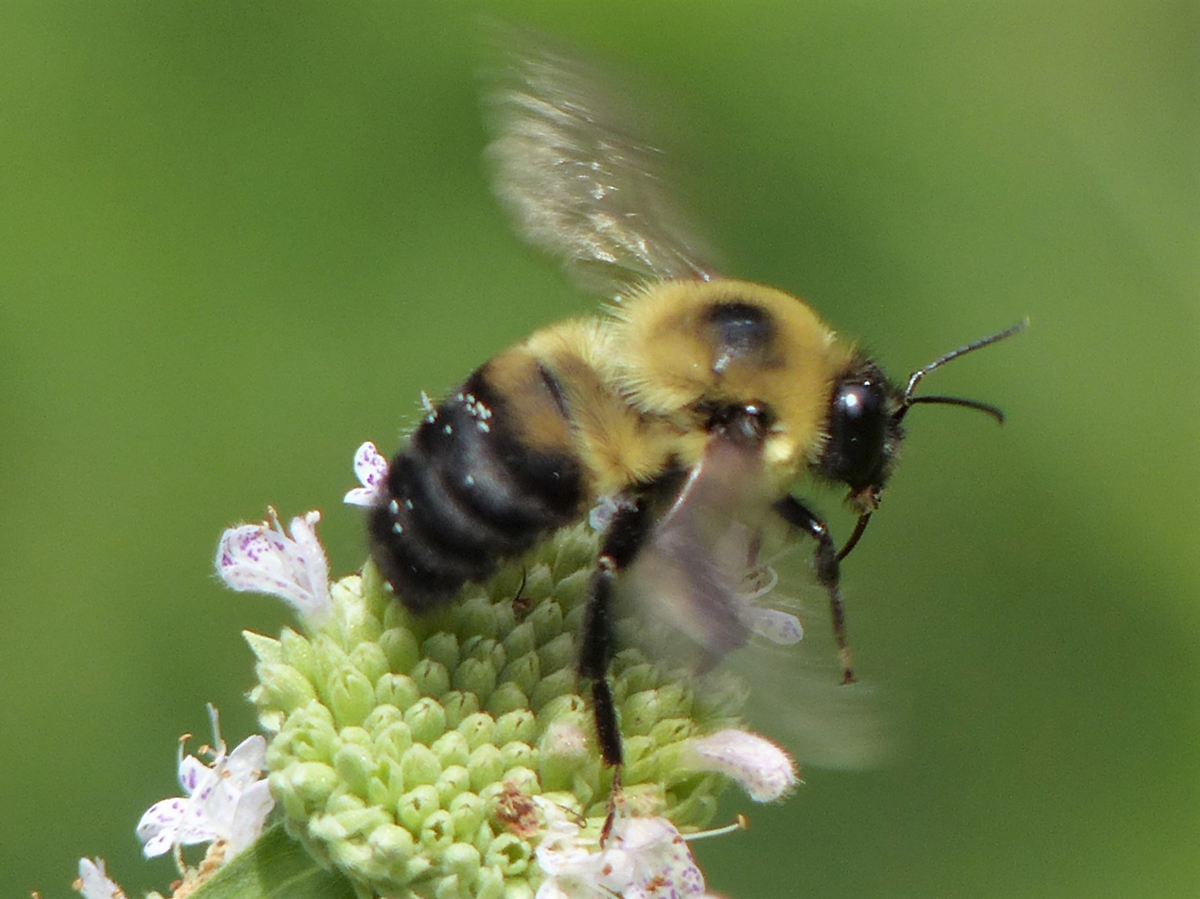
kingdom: Animalia
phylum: Arthropoda
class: Insecta
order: Hymenoptera
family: Apidae
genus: Bombus
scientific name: Bombus griseocollis
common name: Brown-belted bumble bee
